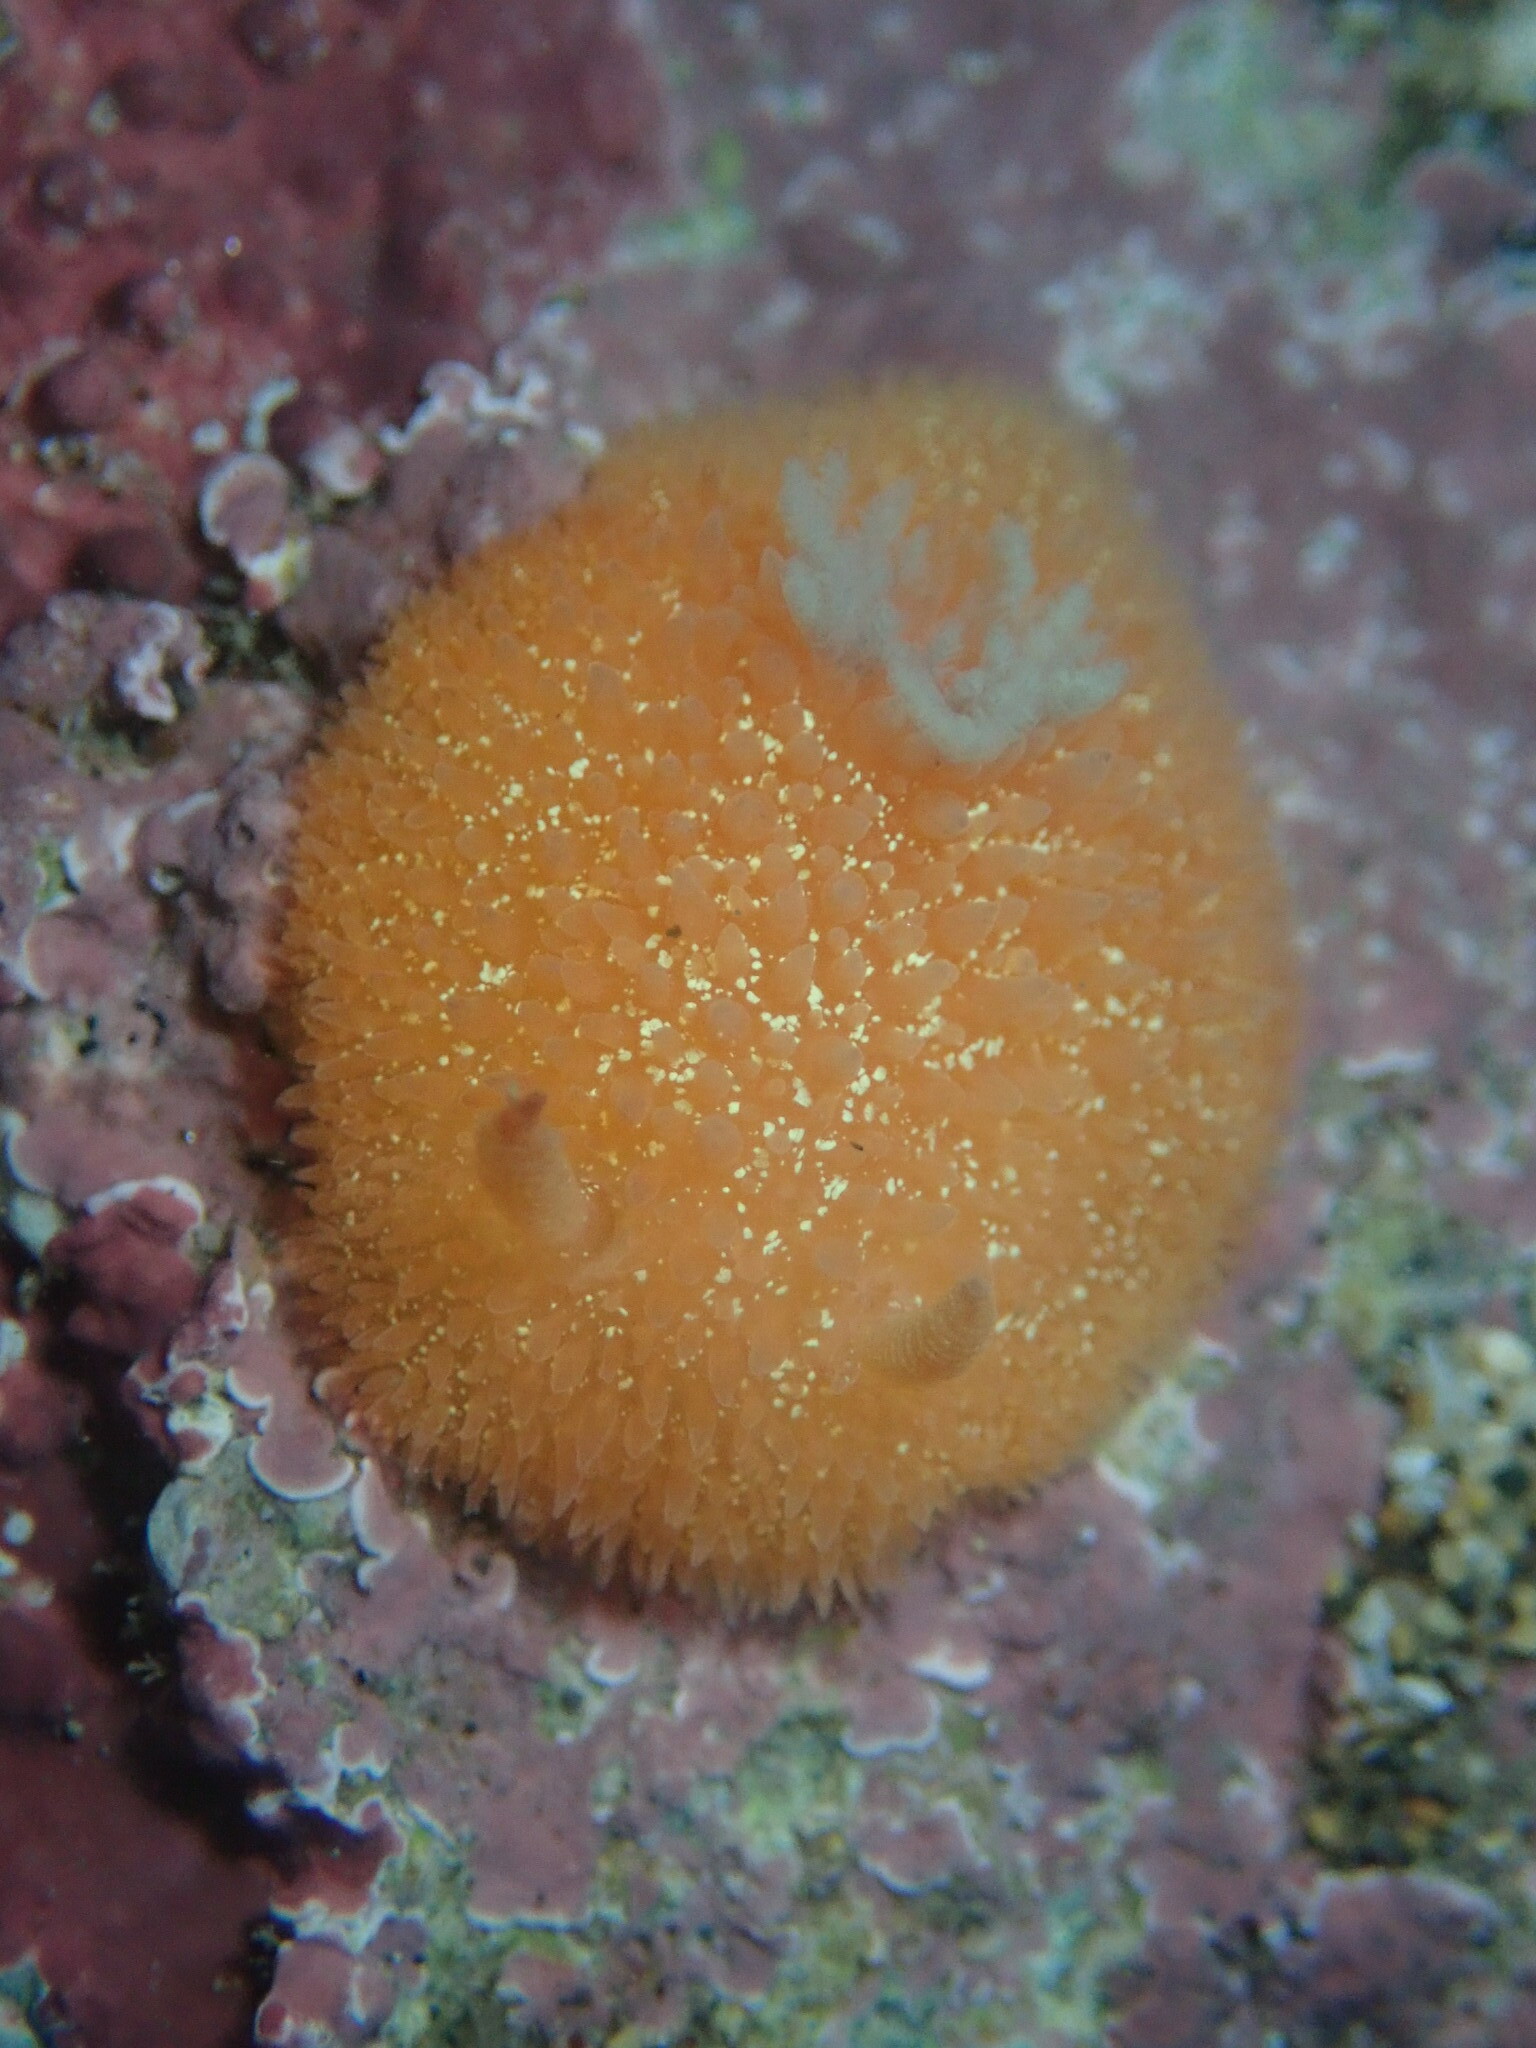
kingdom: Animalia
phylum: Mollusca
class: Gastropoda
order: Nudibranchia
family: Onchidorididae
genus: Acanthodoris
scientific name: Acanthodoris lutea
